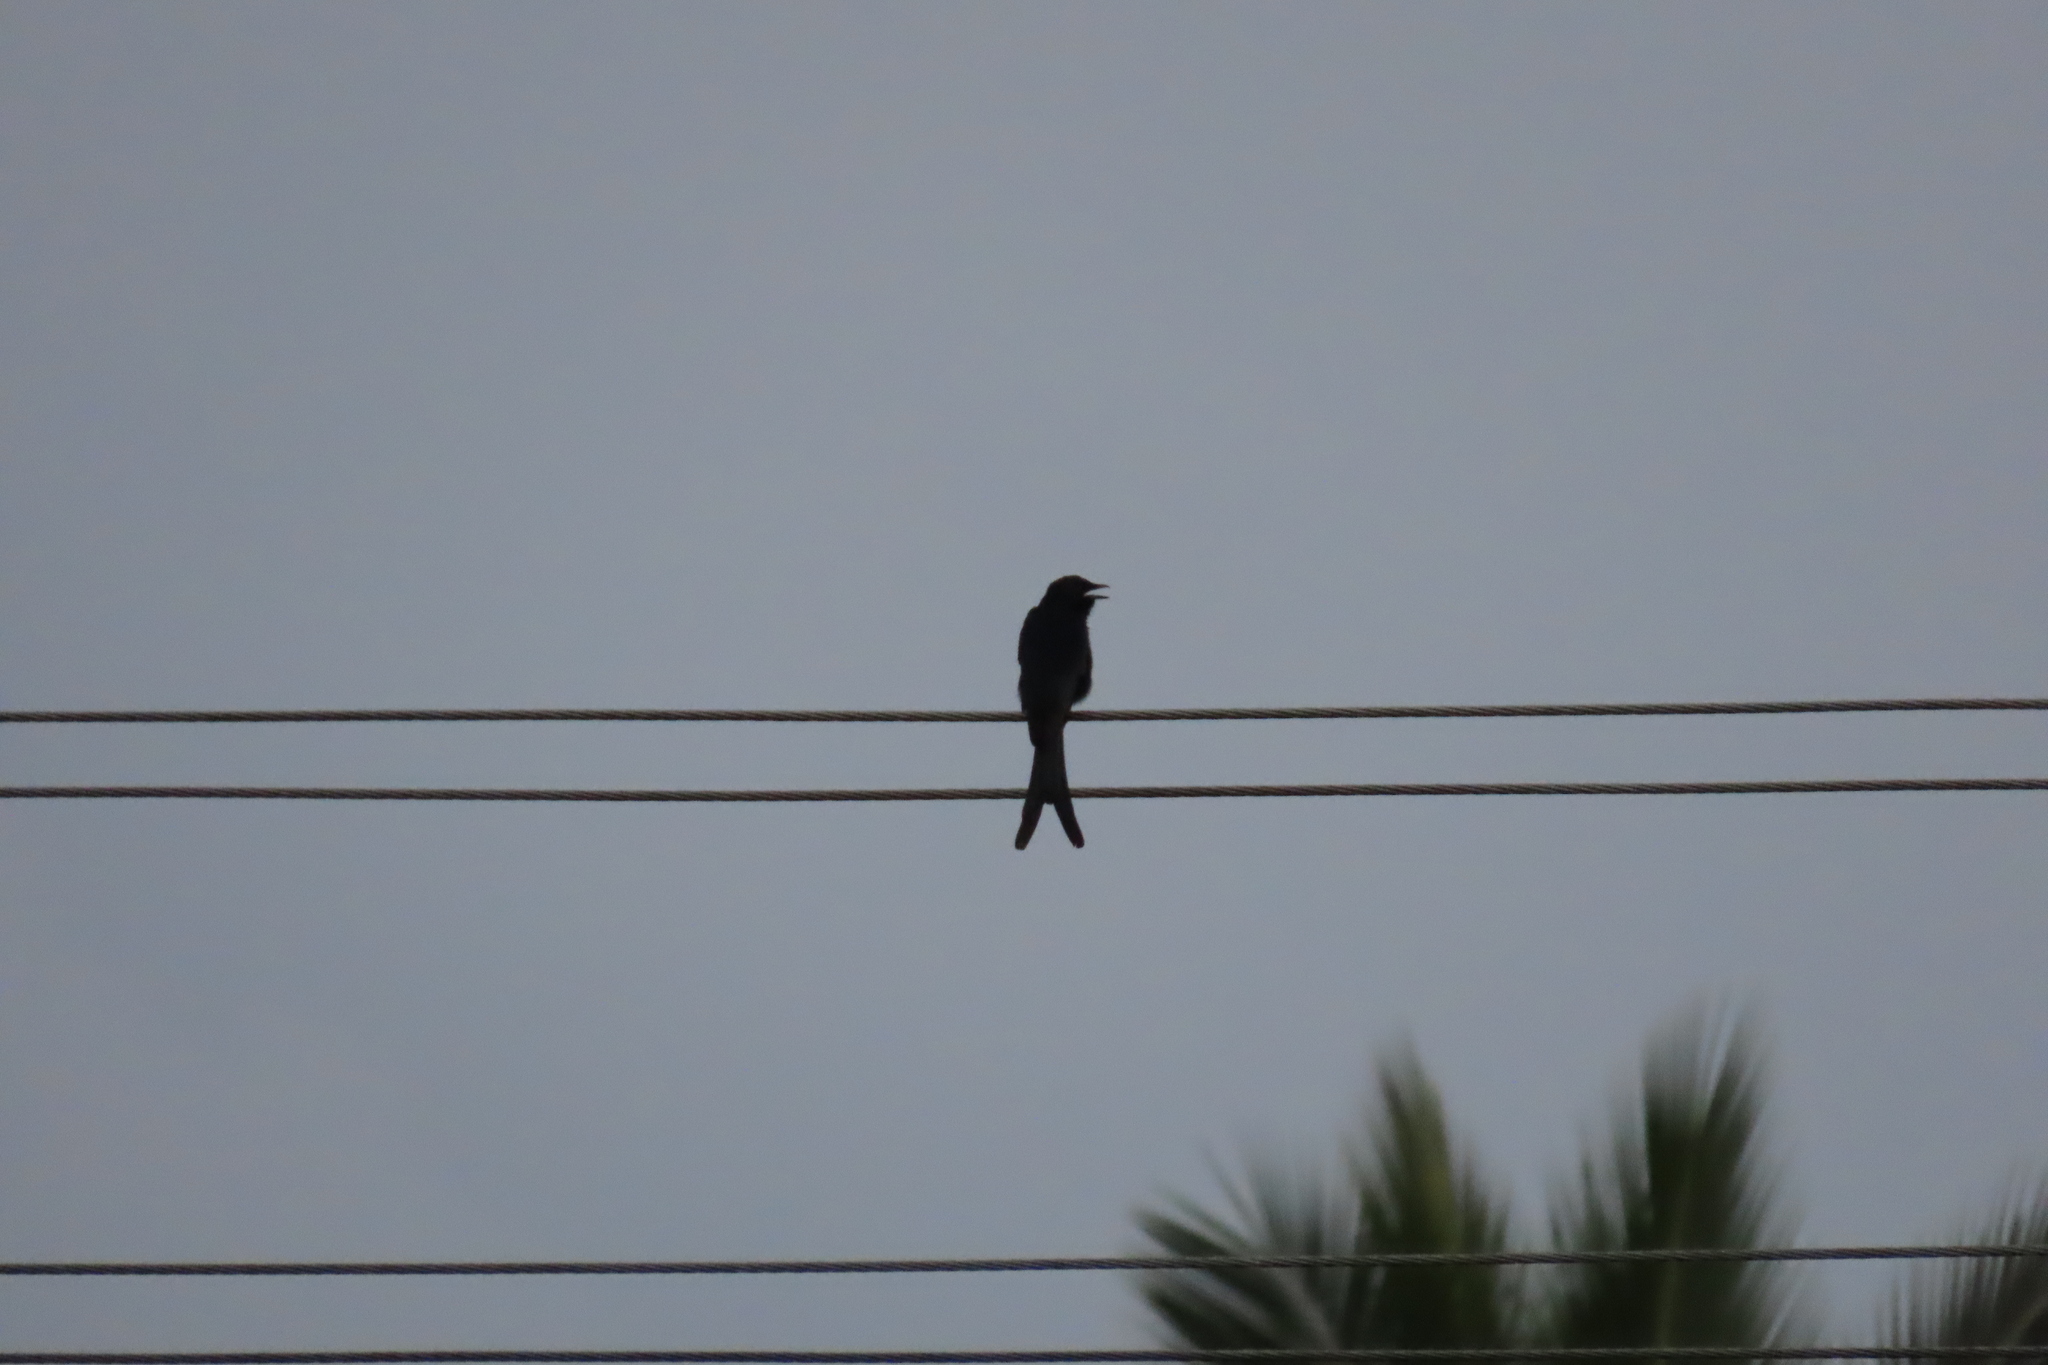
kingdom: Animalia
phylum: Chordata
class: Aves
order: Passeriformes
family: Dicruridae
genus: Dicrurus
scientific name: Dicrurus macrocercus
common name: Black drongo
